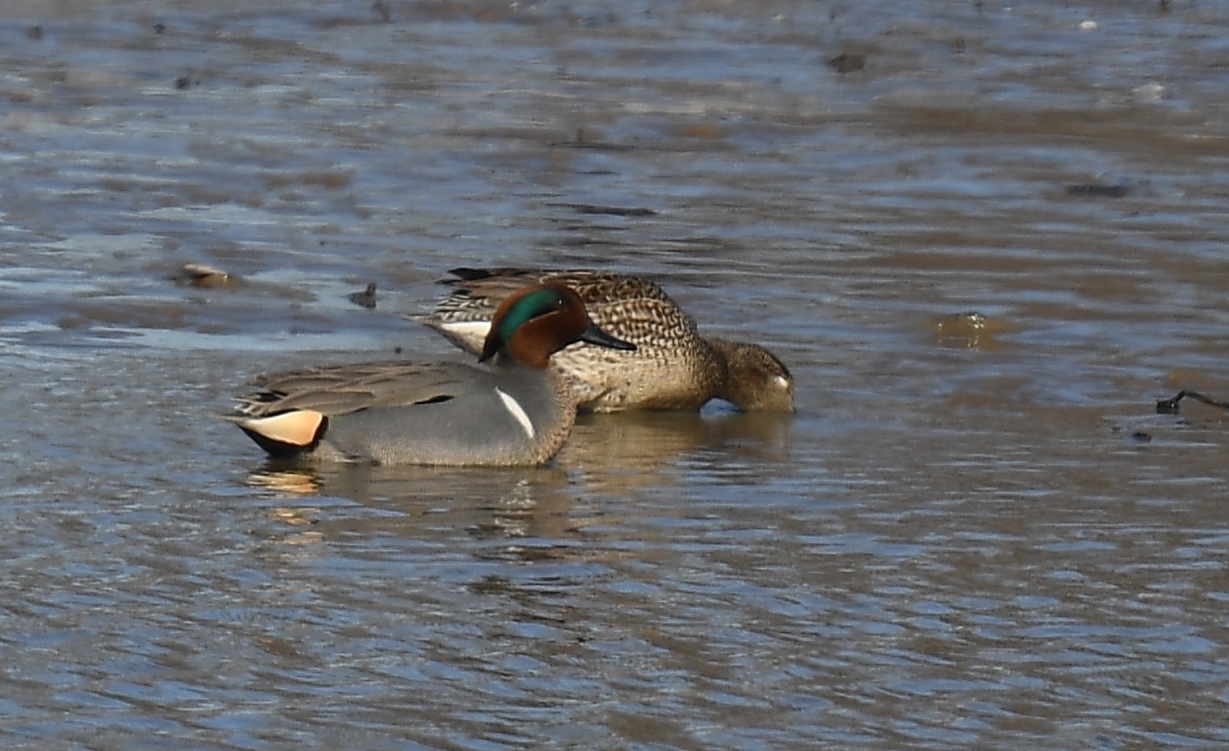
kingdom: Animalia
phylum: Chordata
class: Aves
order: Anseriformes
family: Anatidae
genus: Anas
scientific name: Anas crecca
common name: Eurasian teal
